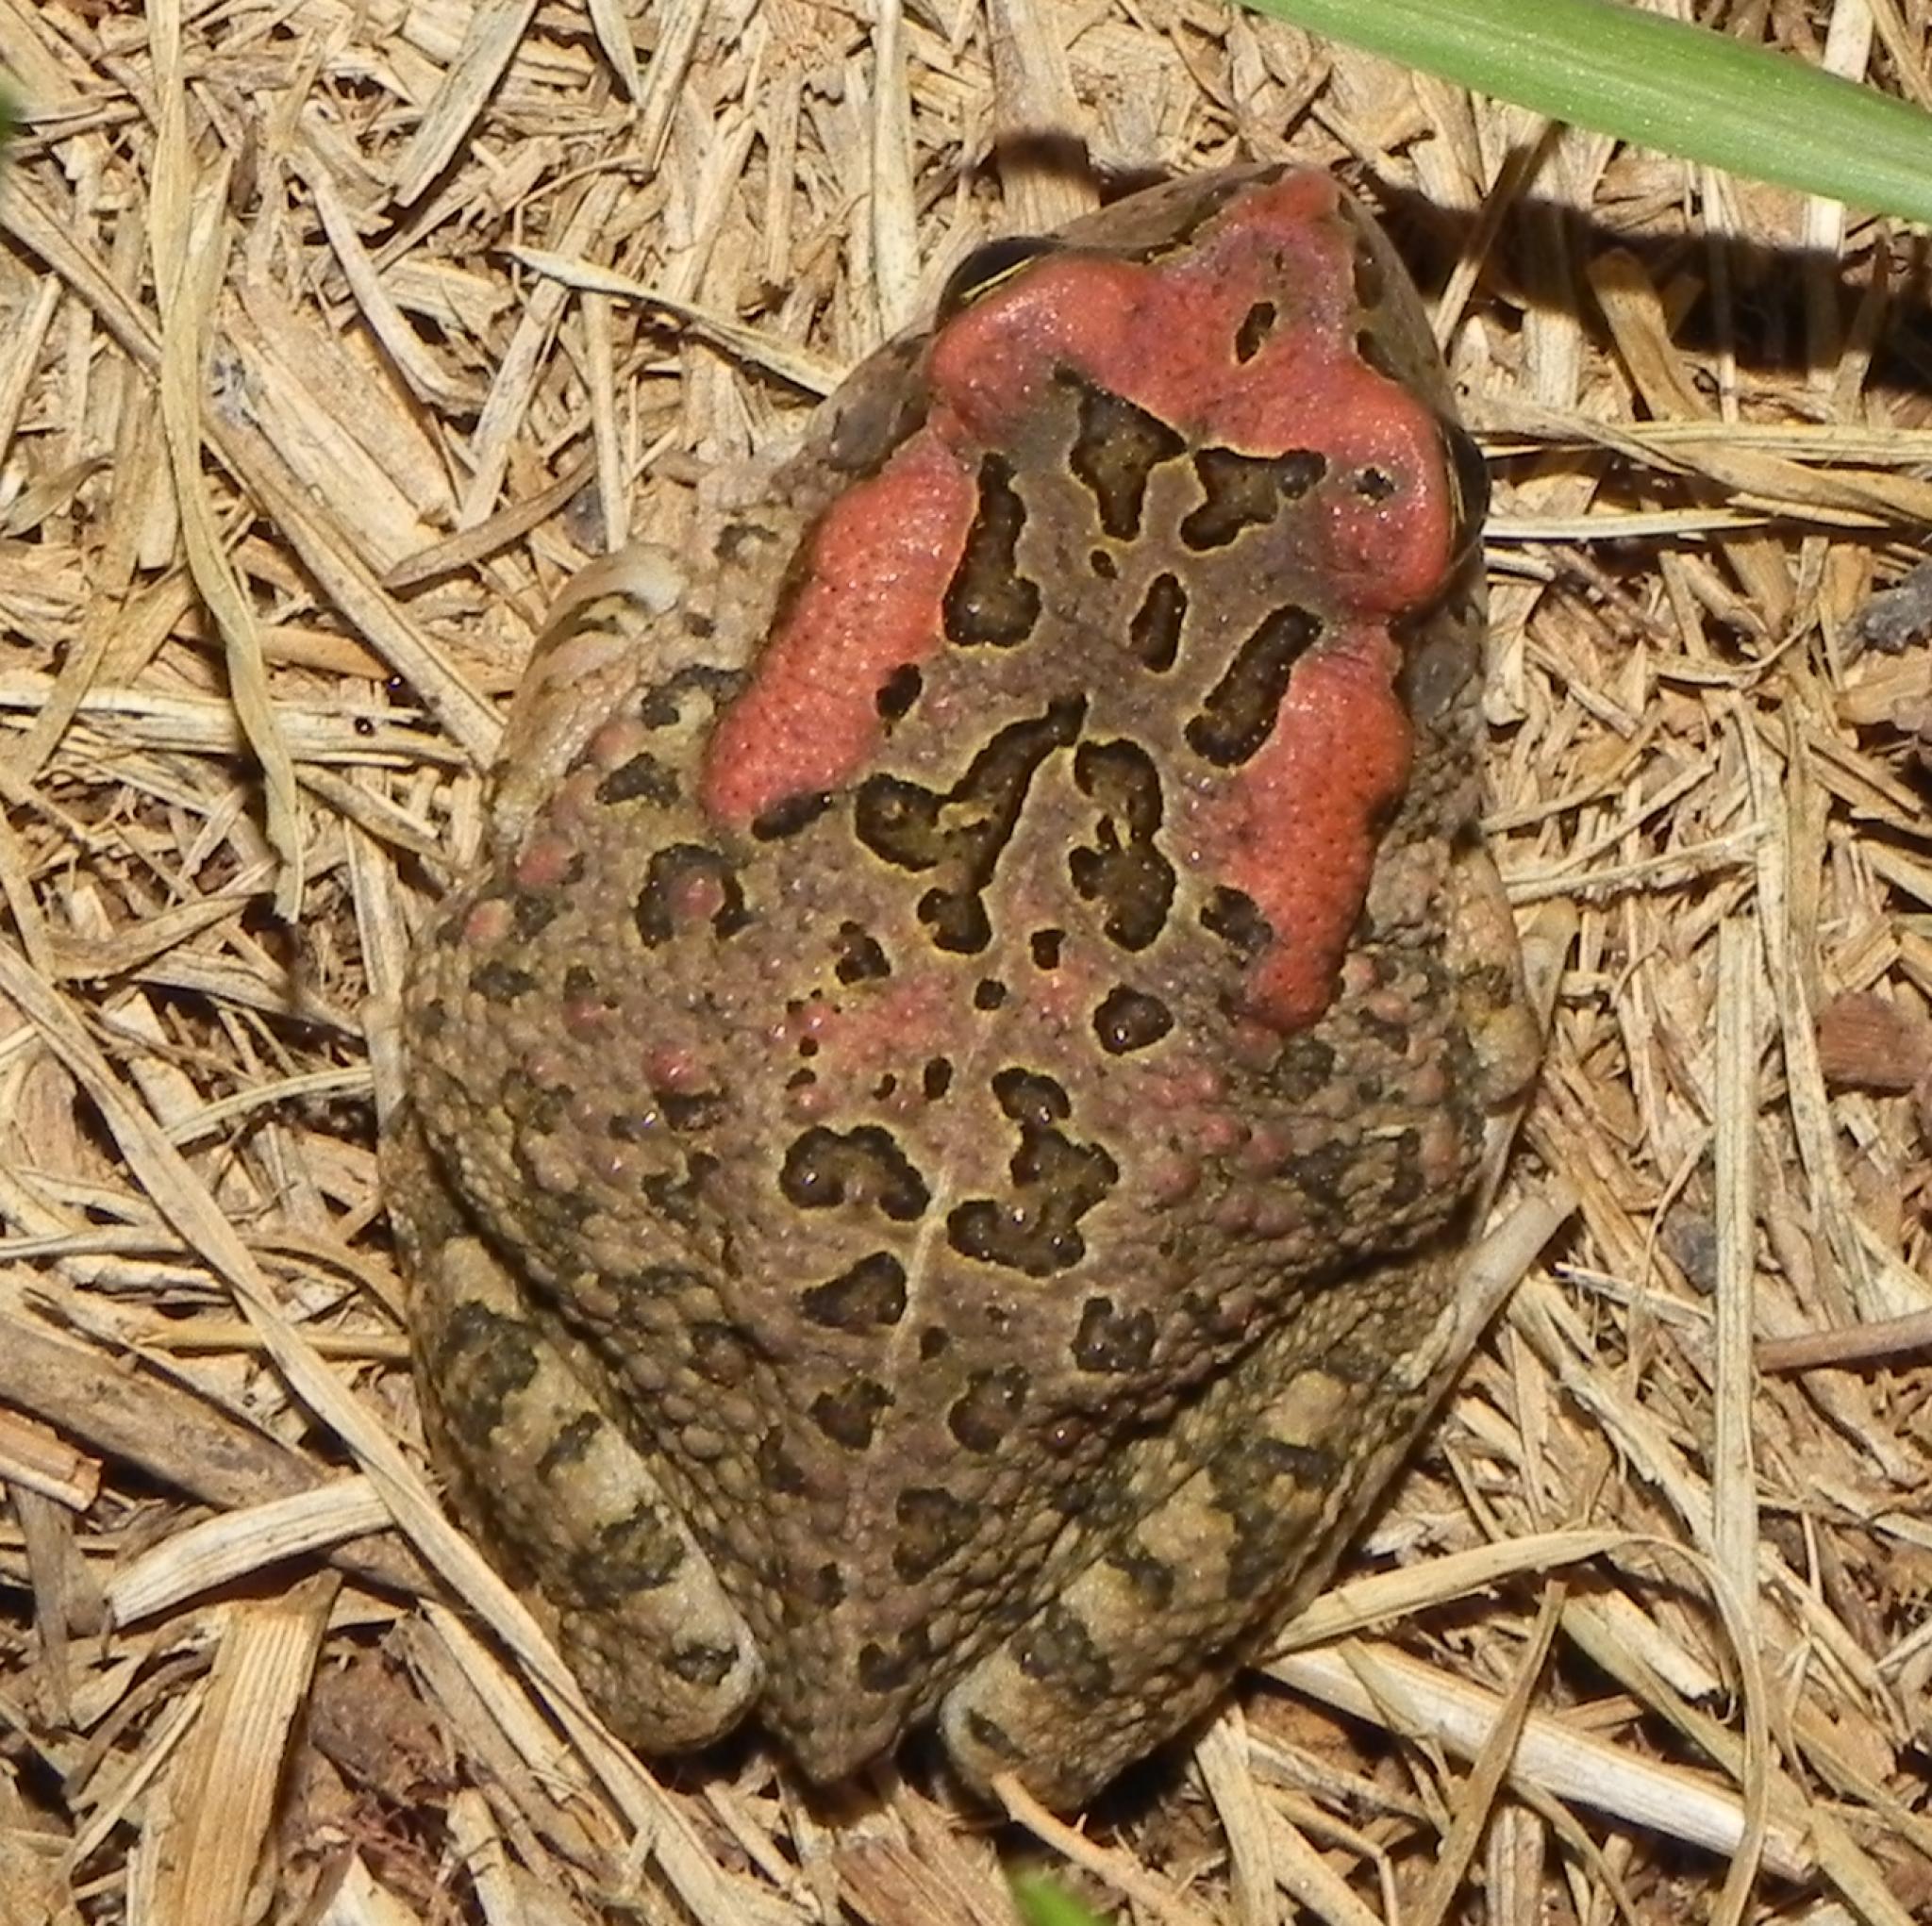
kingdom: Animalia
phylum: Chordata
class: Amphibia
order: Anura
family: Bufonidae
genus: Sclerophrys
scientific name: Sclerophrys capensis
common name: Ranger’s toad
